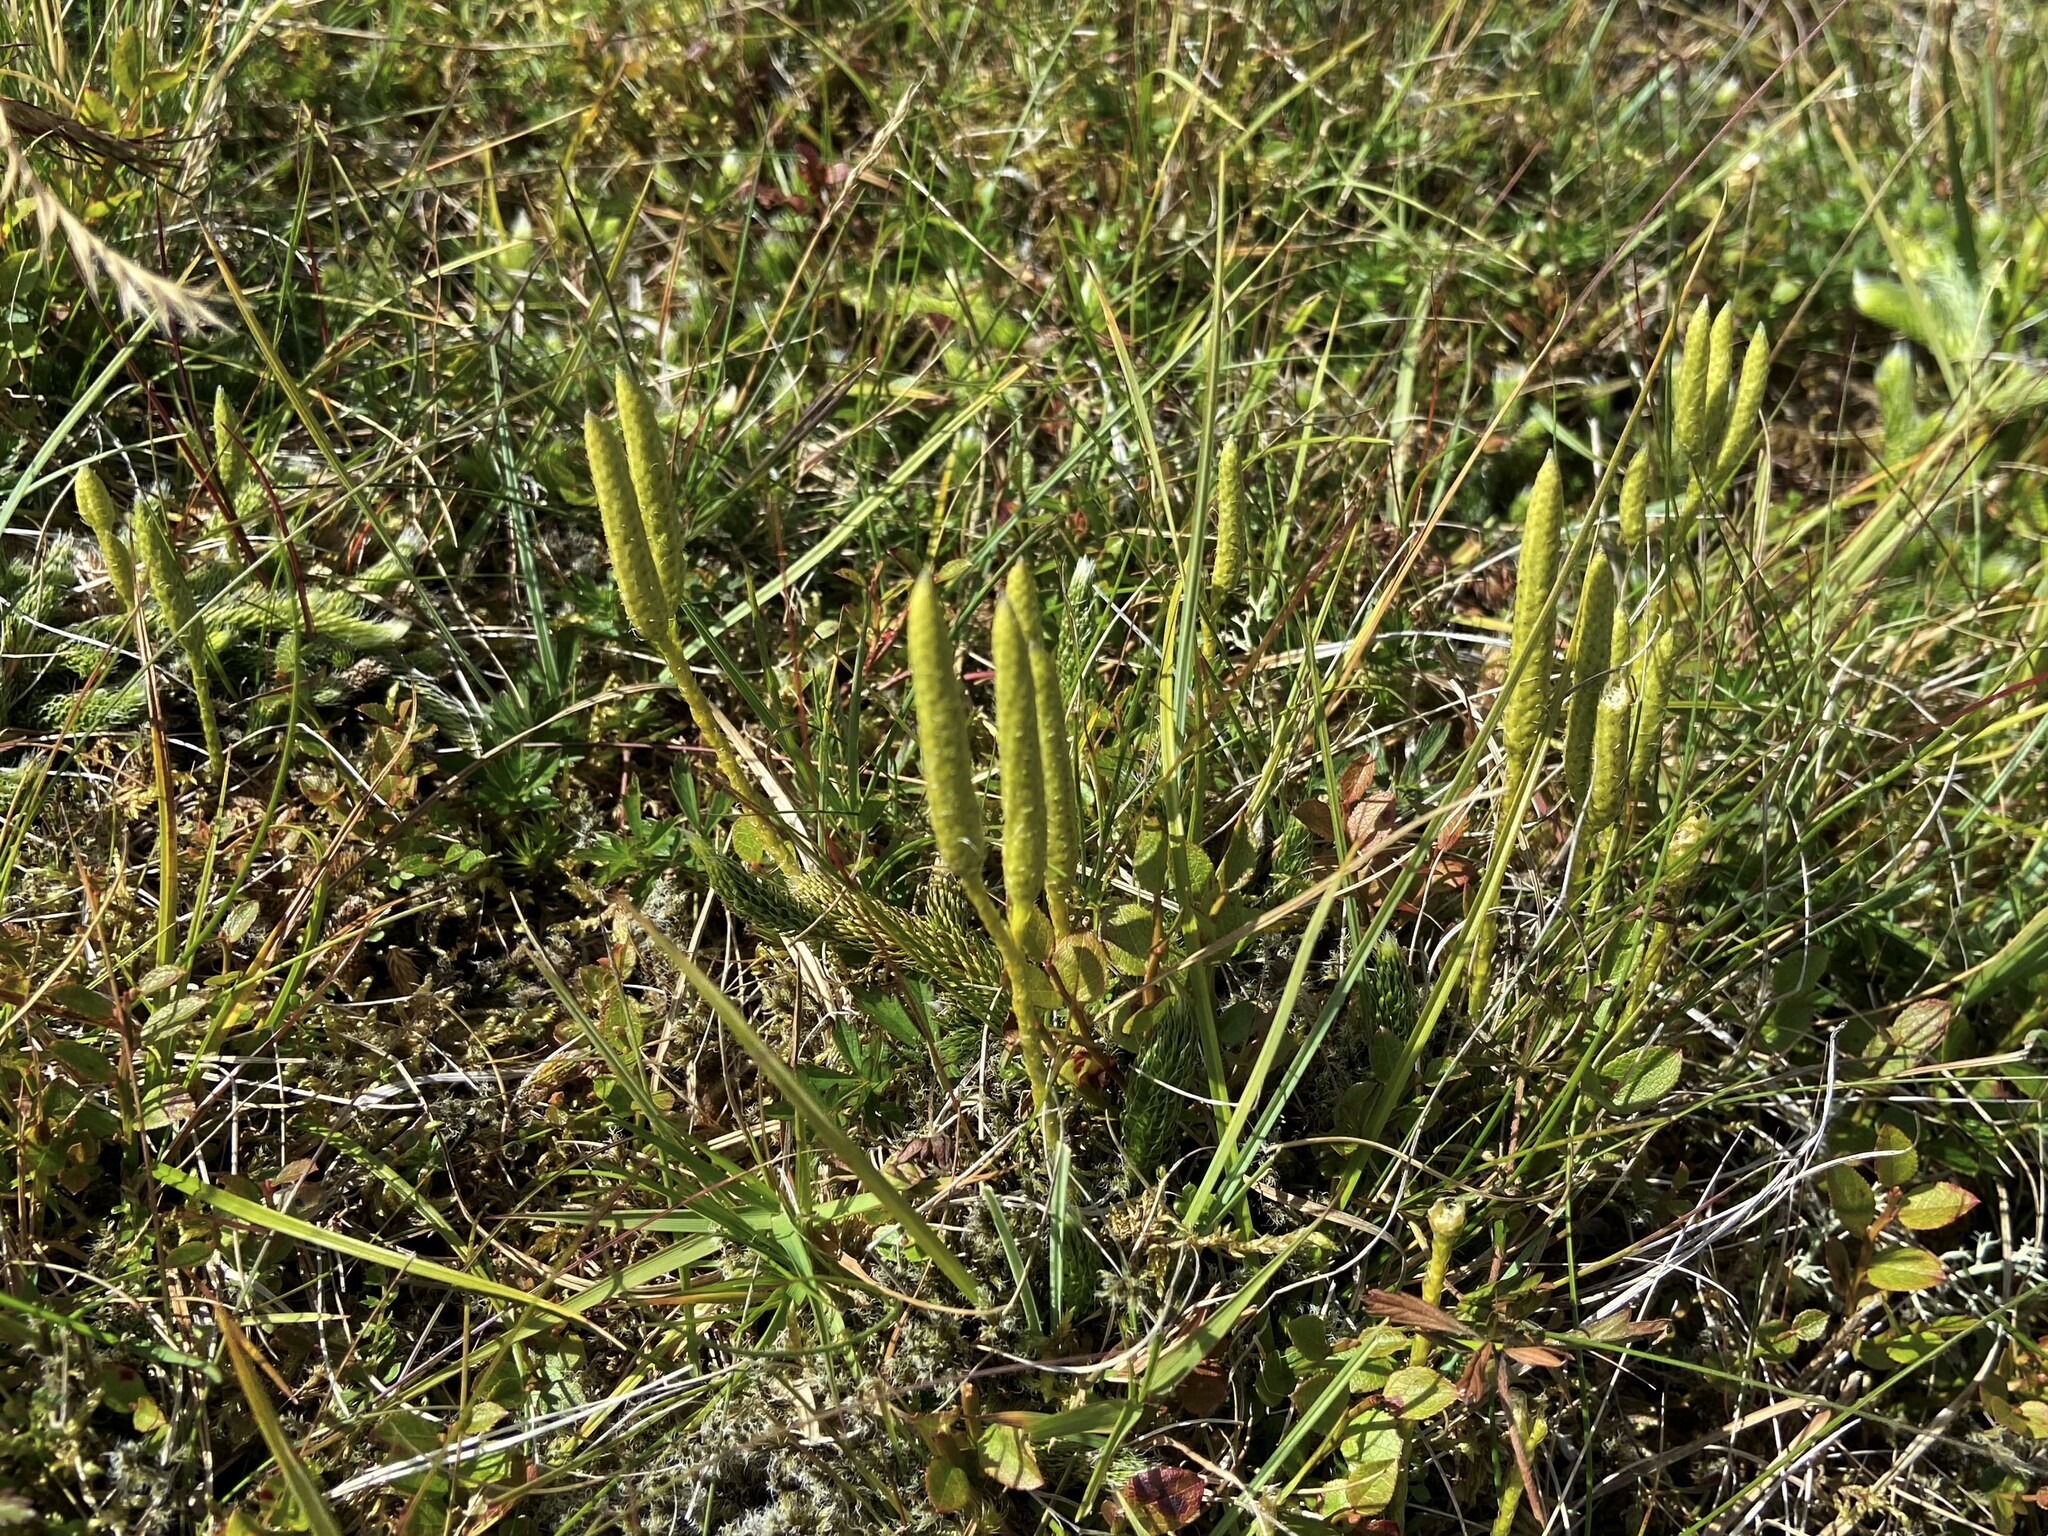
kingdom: Plantae
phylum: Tracheophyta
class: Lycopodiopsida
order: Lycopodiales
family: Lycopodiaceae
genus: Lycopodium
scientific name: Lycopodium clavatum
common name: Stag's-horn clubmoss
